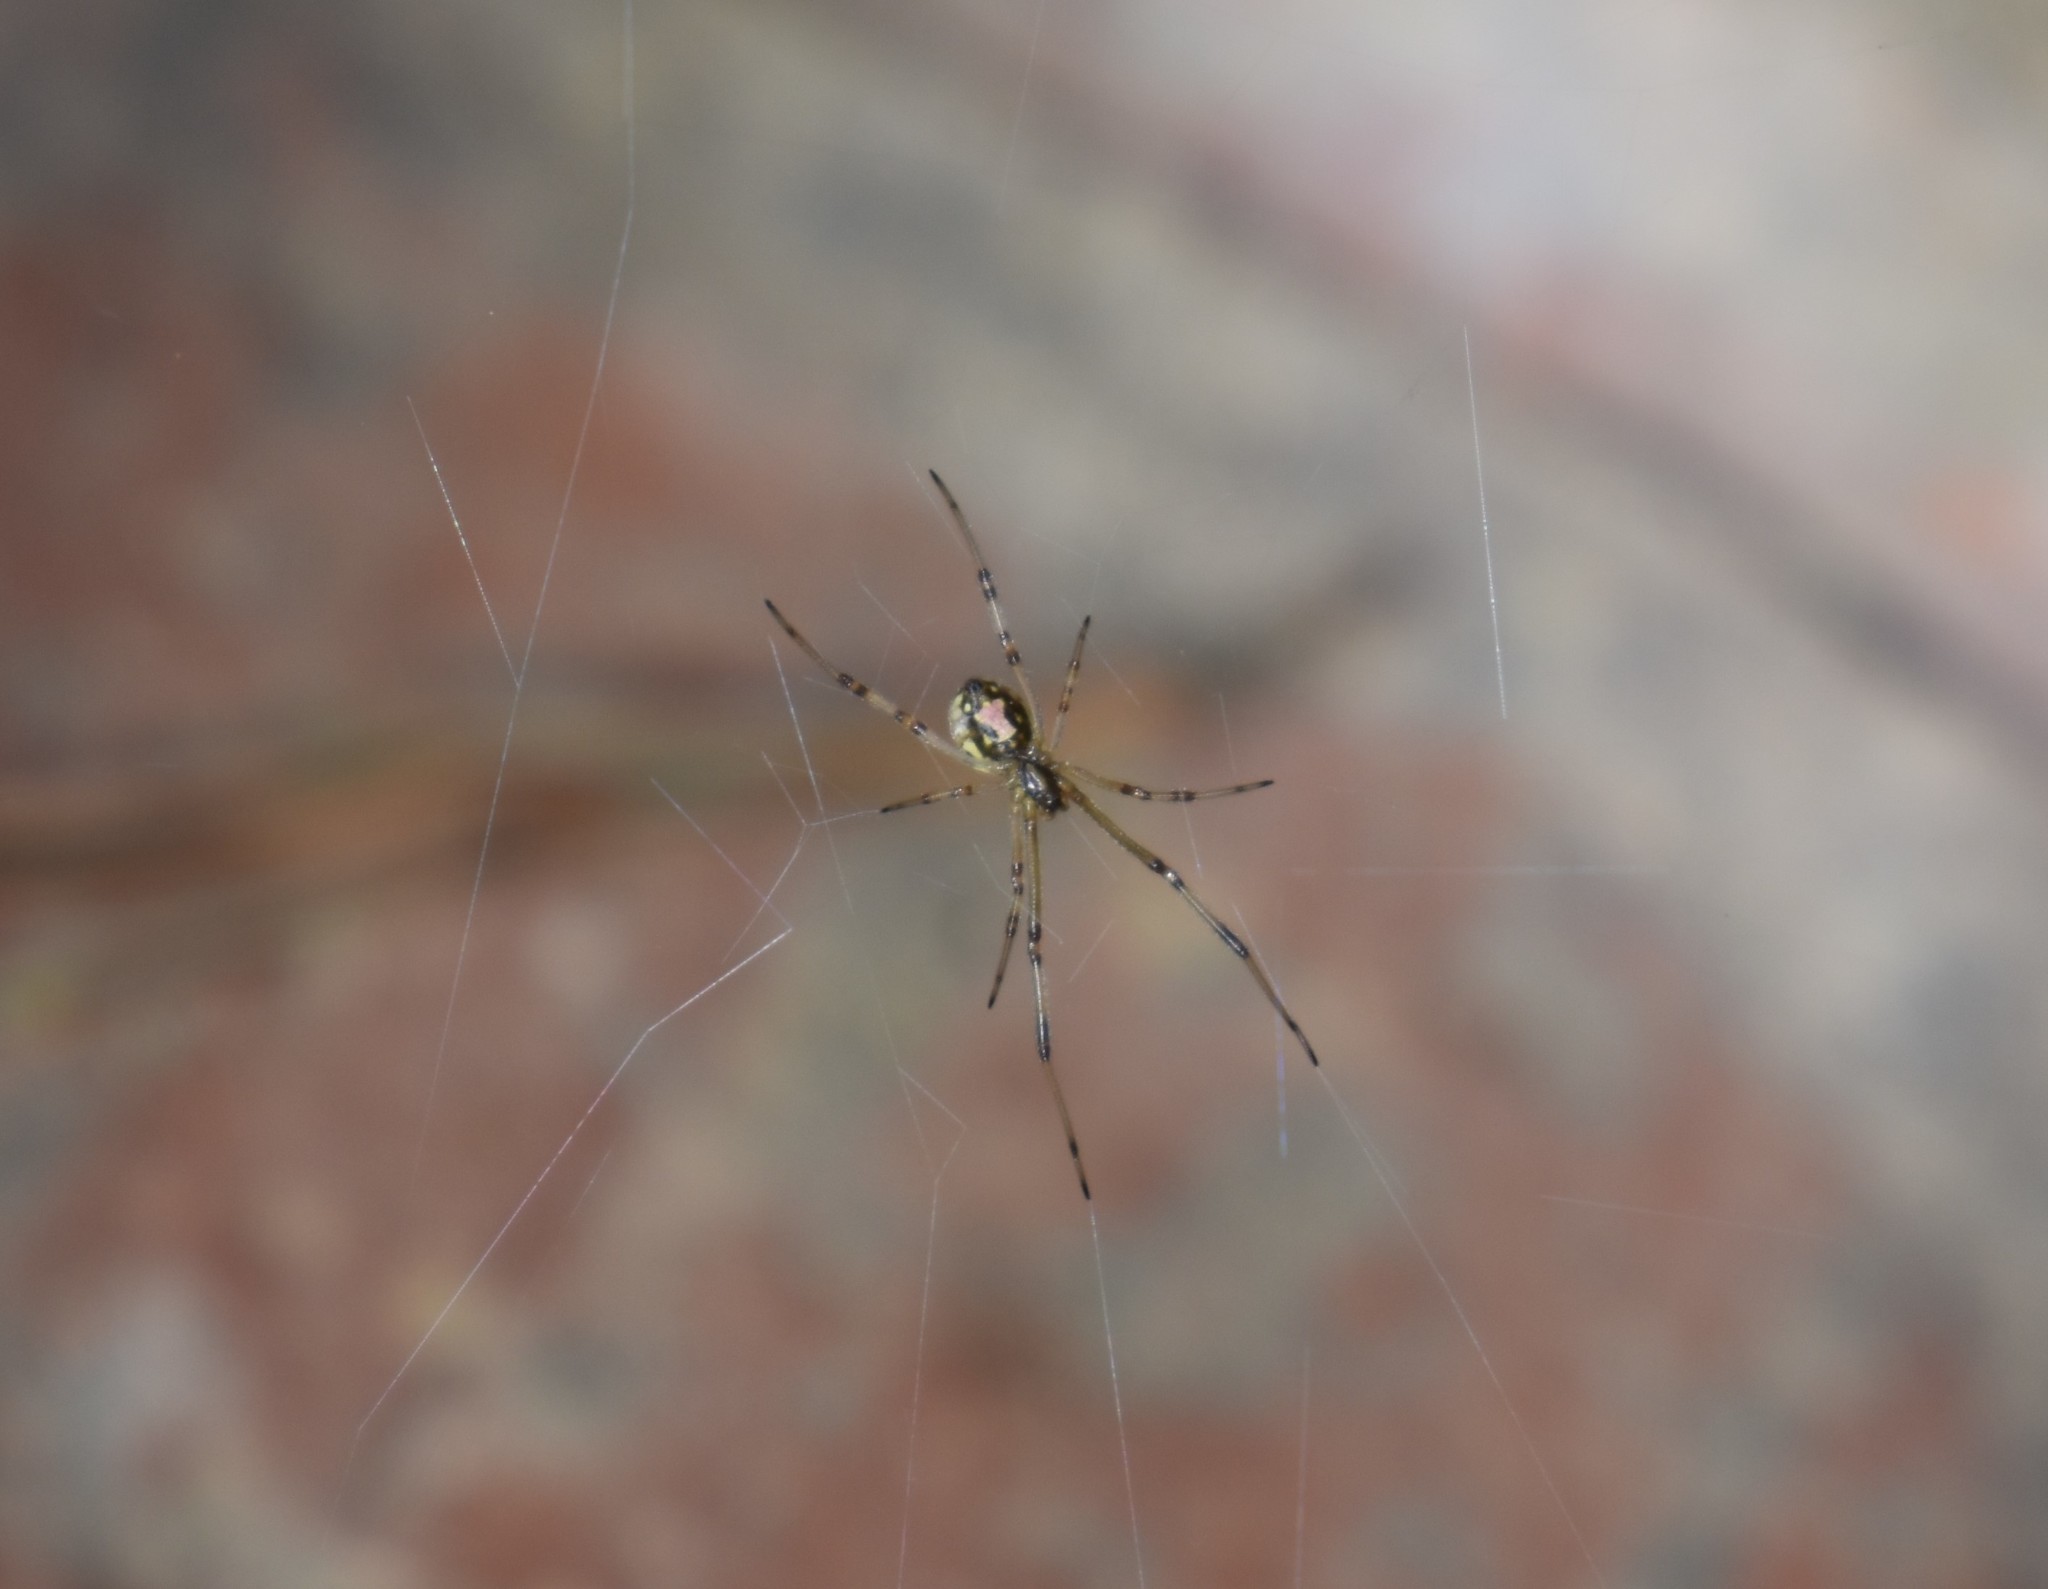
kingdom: Animalia
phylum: Arthropoda
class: Arachnida
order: Araneae
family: Theridiidae
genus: Latrodectus
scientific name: Latrodectus geometricus
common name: Brown widow spider
